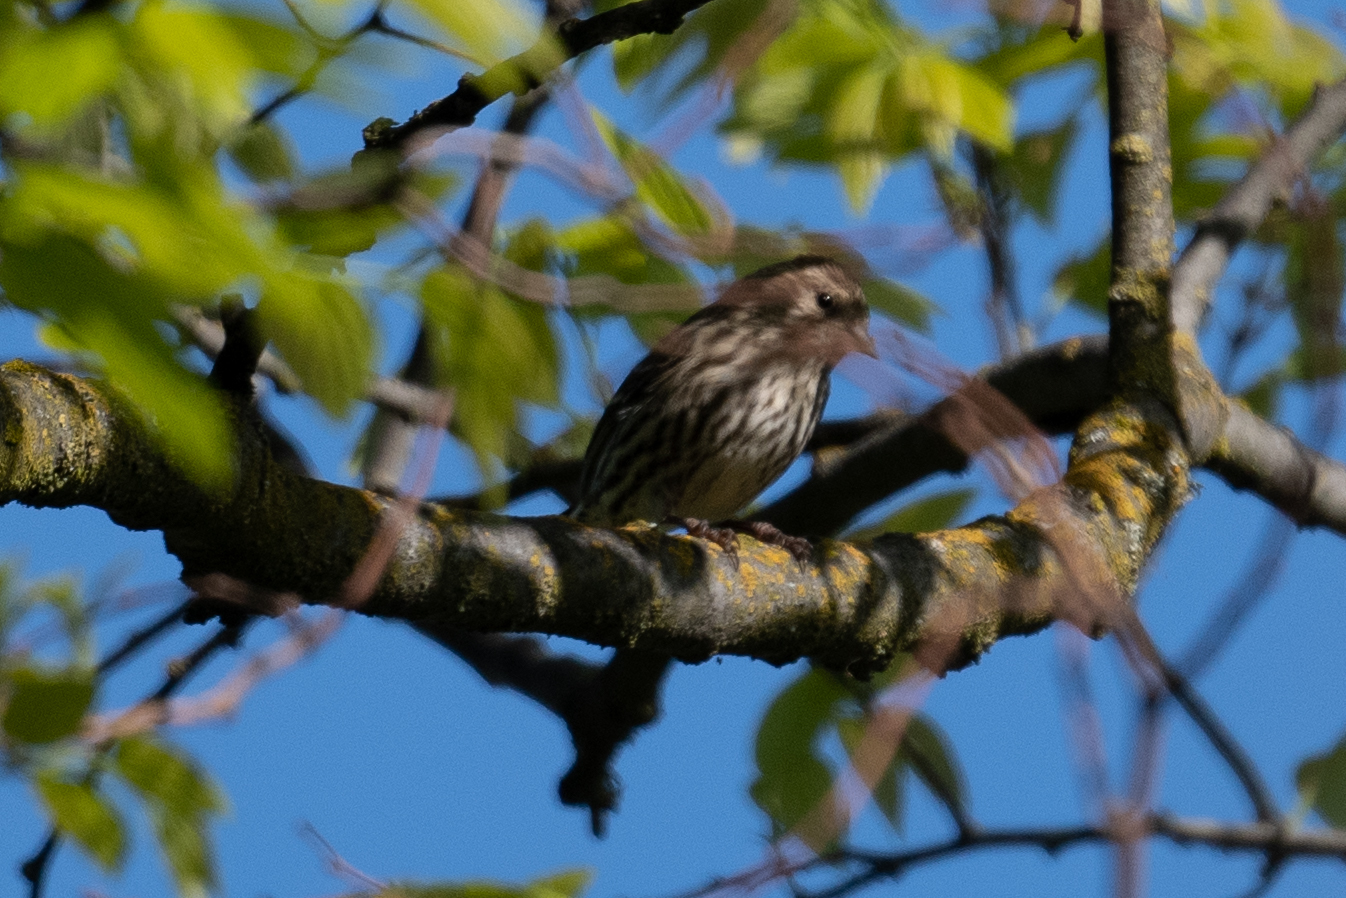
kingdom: Animalia
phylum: Chordata
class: Aves
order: Passeriformes
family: Fringillidae
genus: Spinus
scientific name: Spinus pinus
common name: Pine siskin
